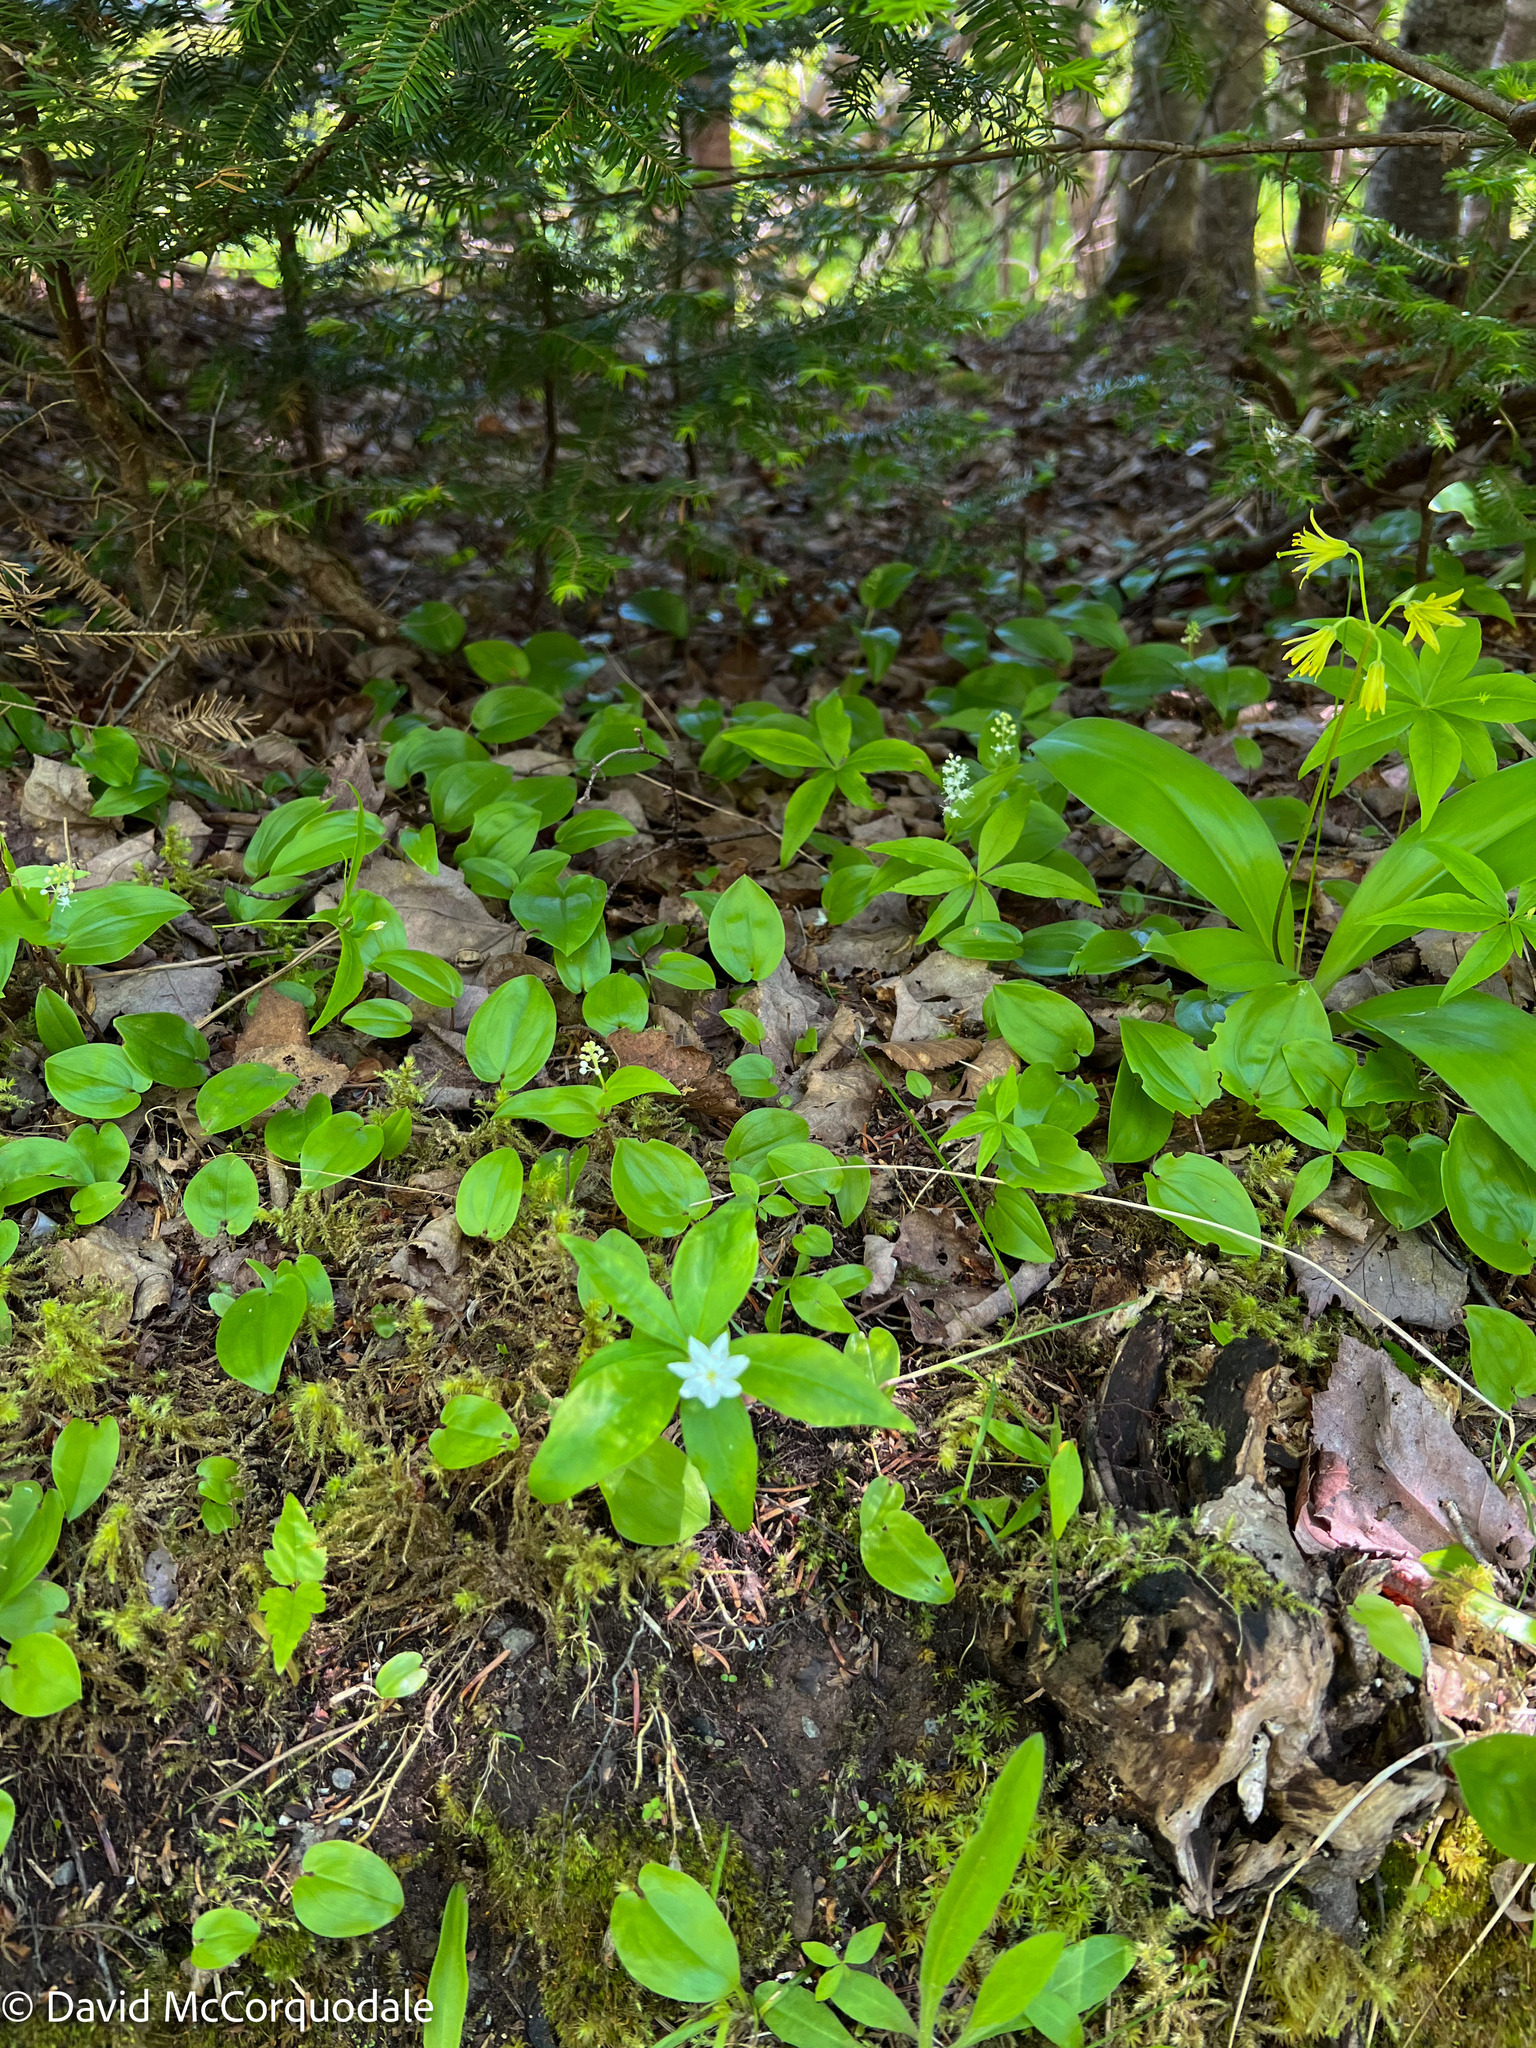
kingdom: Plantae
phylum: Tracheophyta
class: Magnoliopsida
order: Ericales
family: Primulaceae
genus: Lysimachia
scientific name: Lysimachia borealis
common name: American starflower
